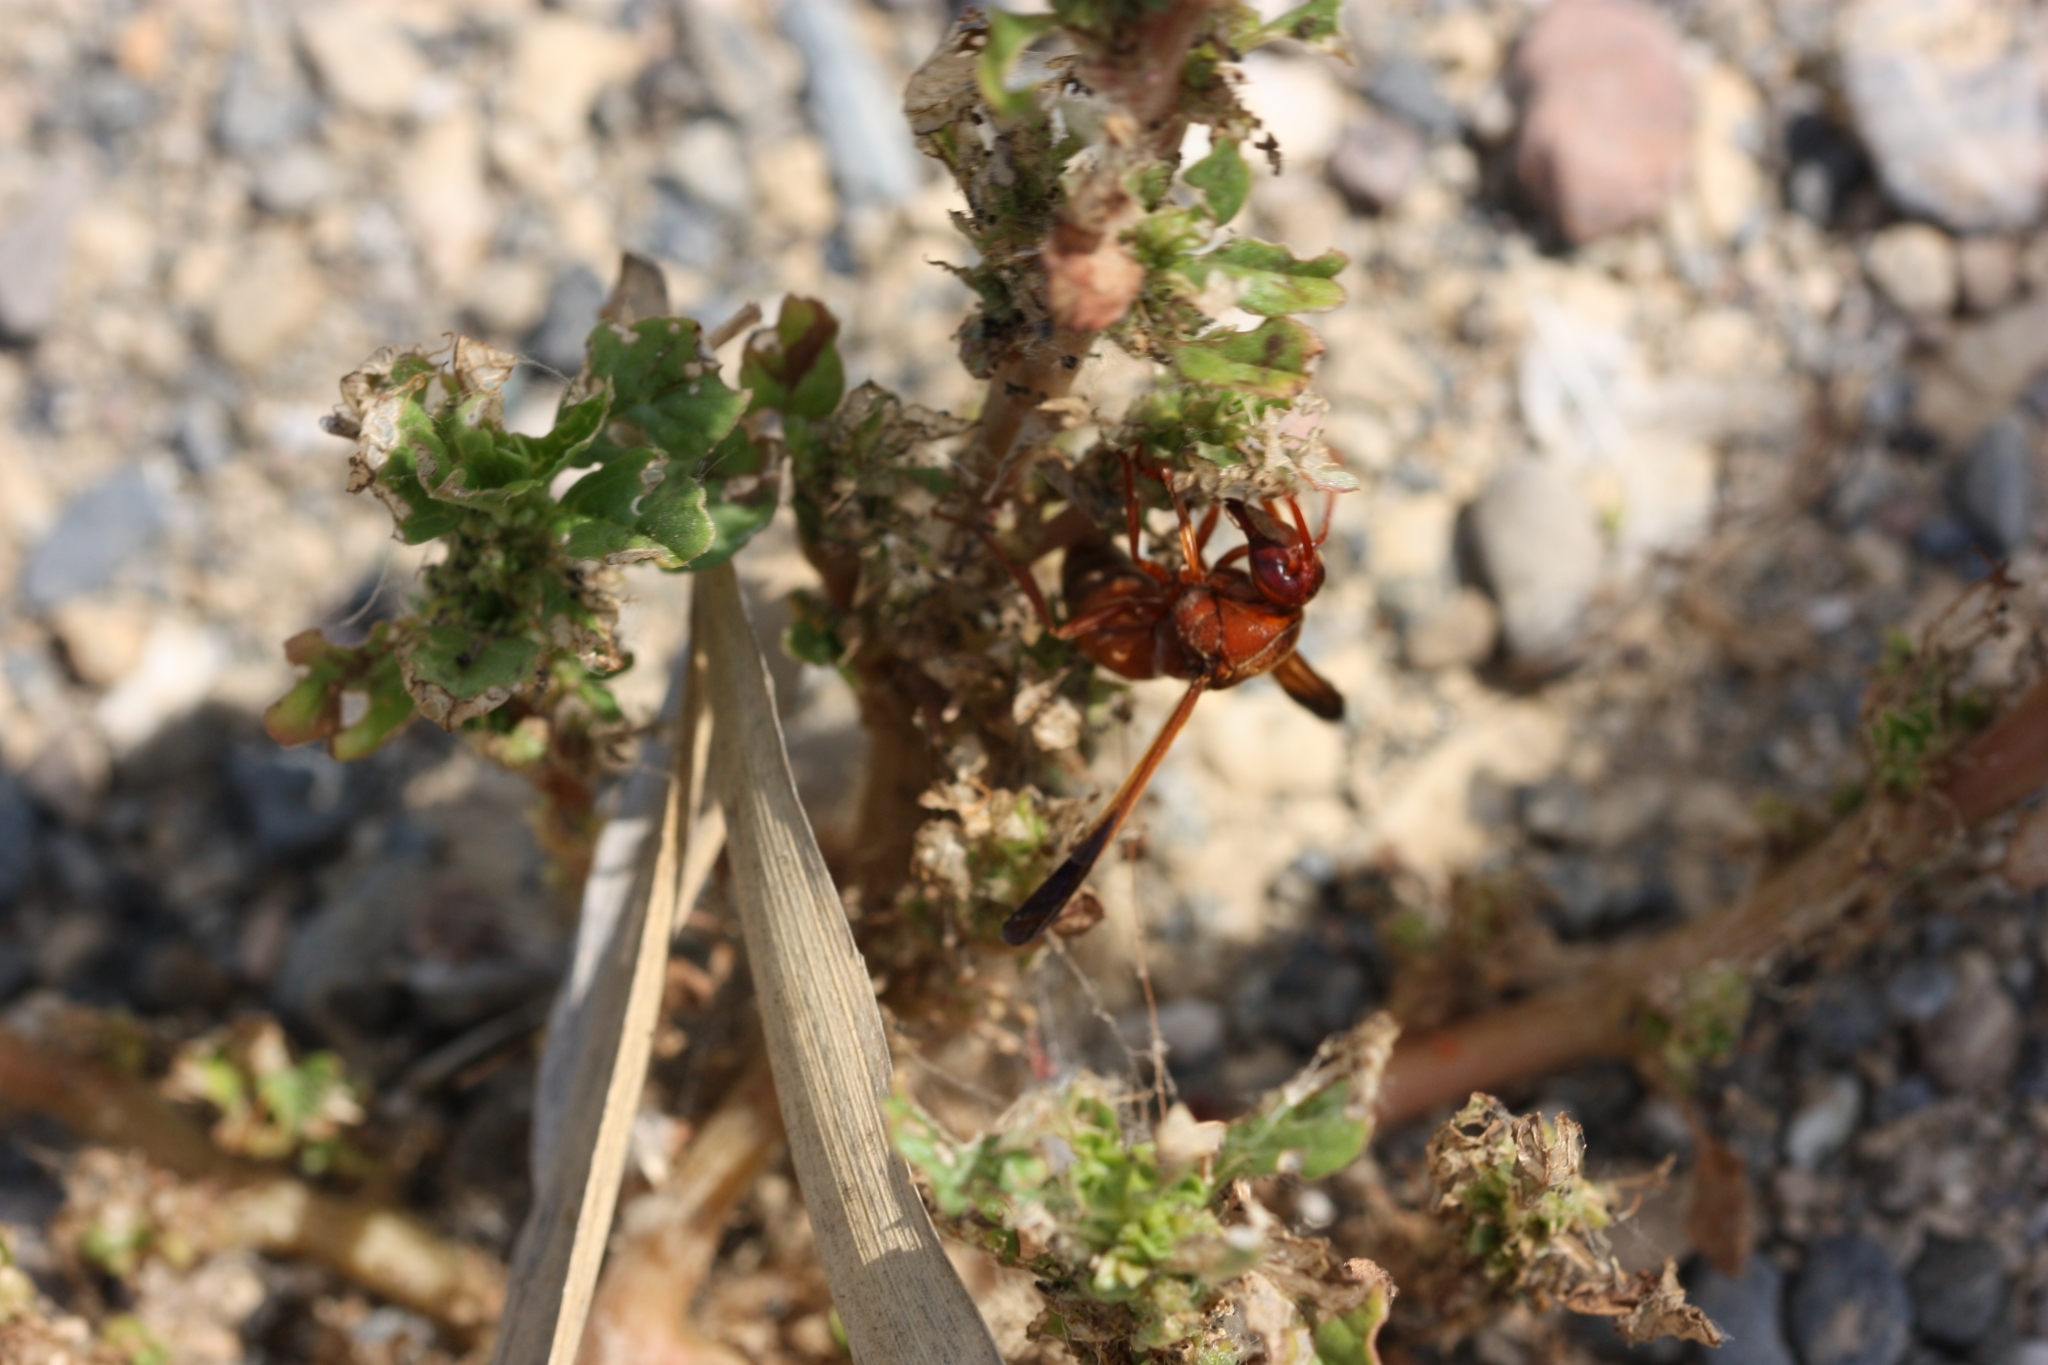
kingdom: Animalia
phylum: Arthropoda
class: Insecta
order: Hymenoptera
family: Eumenidae
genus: Rhynchium
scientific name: Rhynchium oculatum
